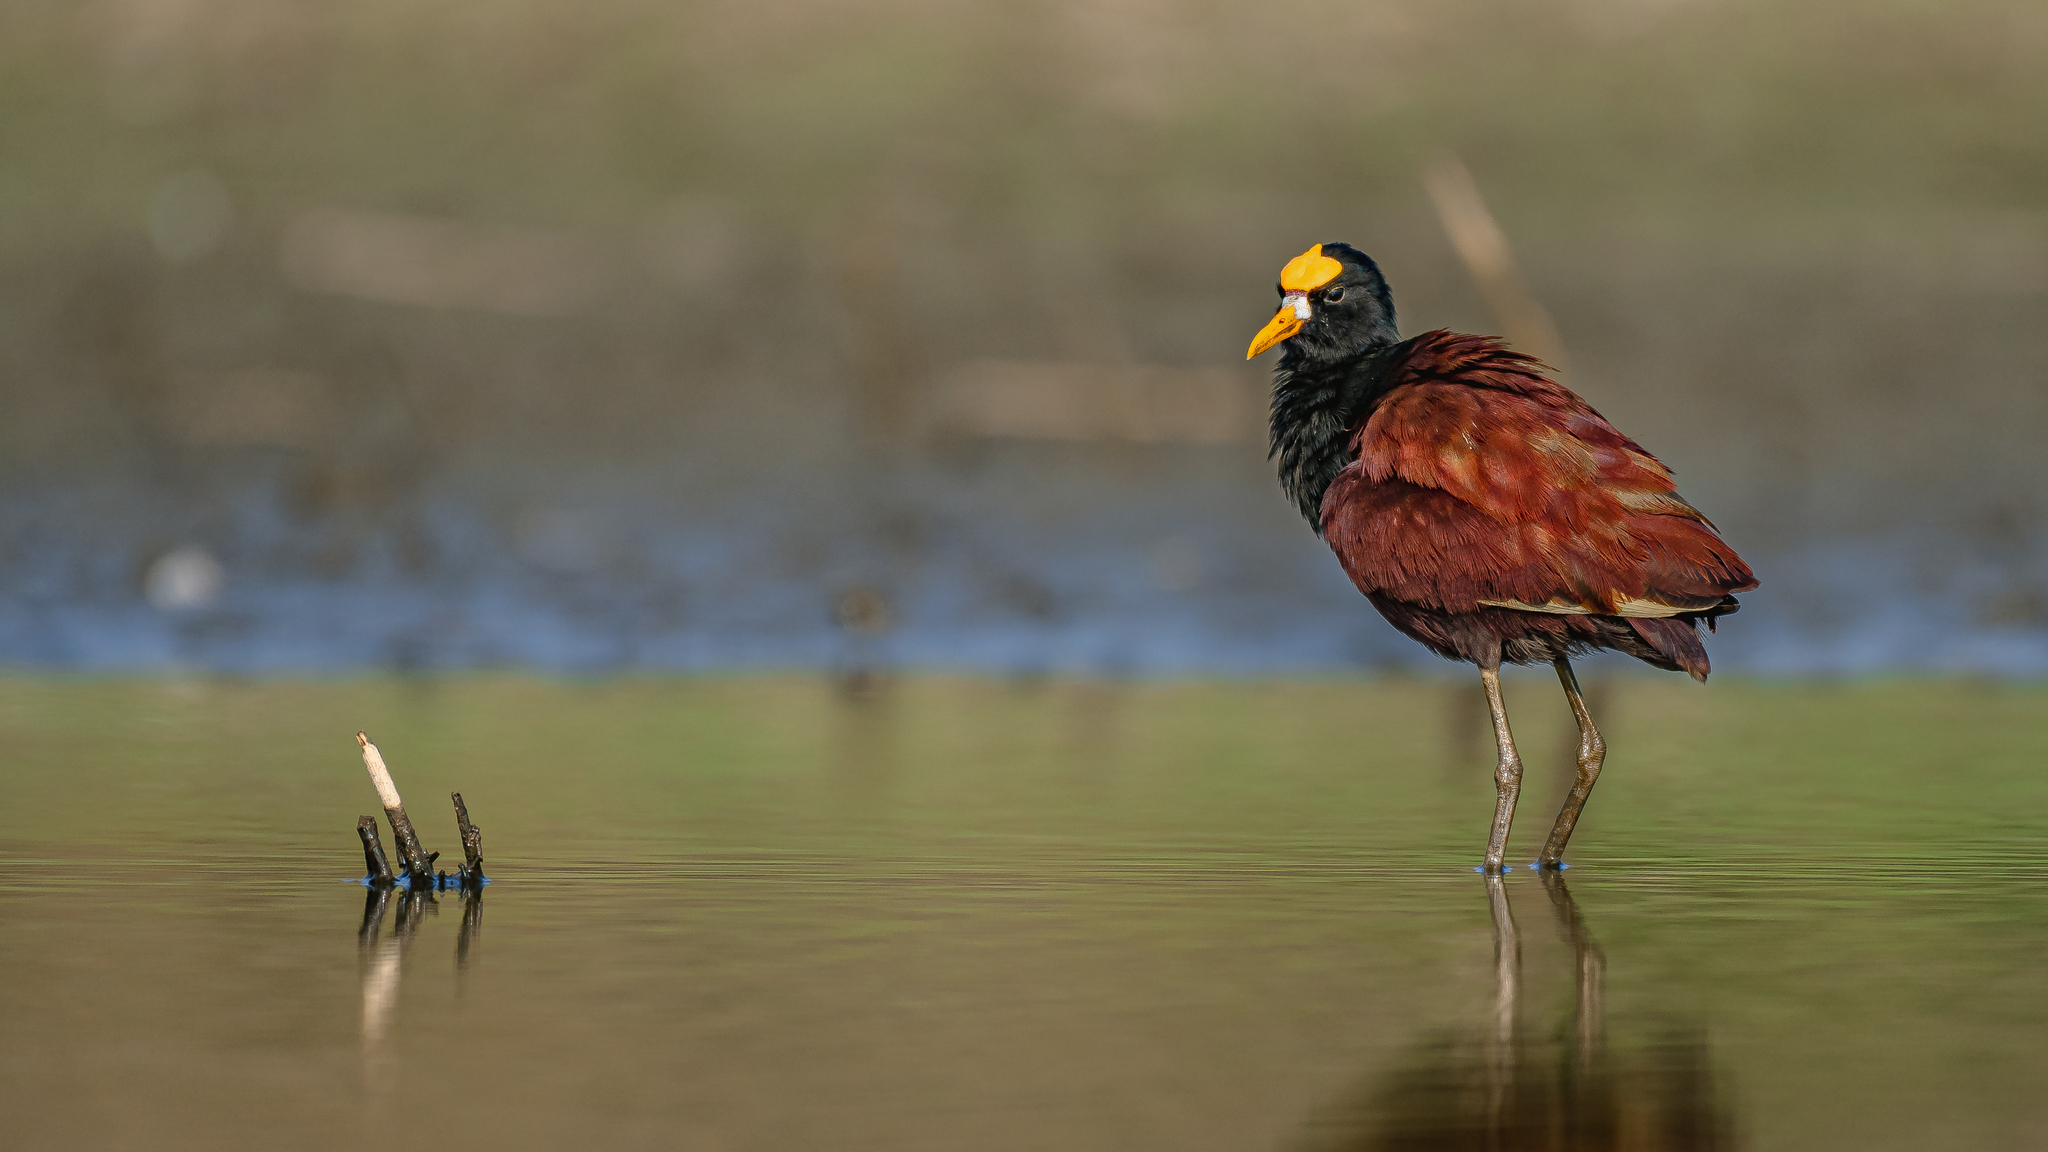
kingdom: Animalia
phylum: Chordata
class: Aves
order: Charadriiformes
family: Jacanidae
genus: Jacana
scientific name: Jacana spinosa
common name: Northern jacana
